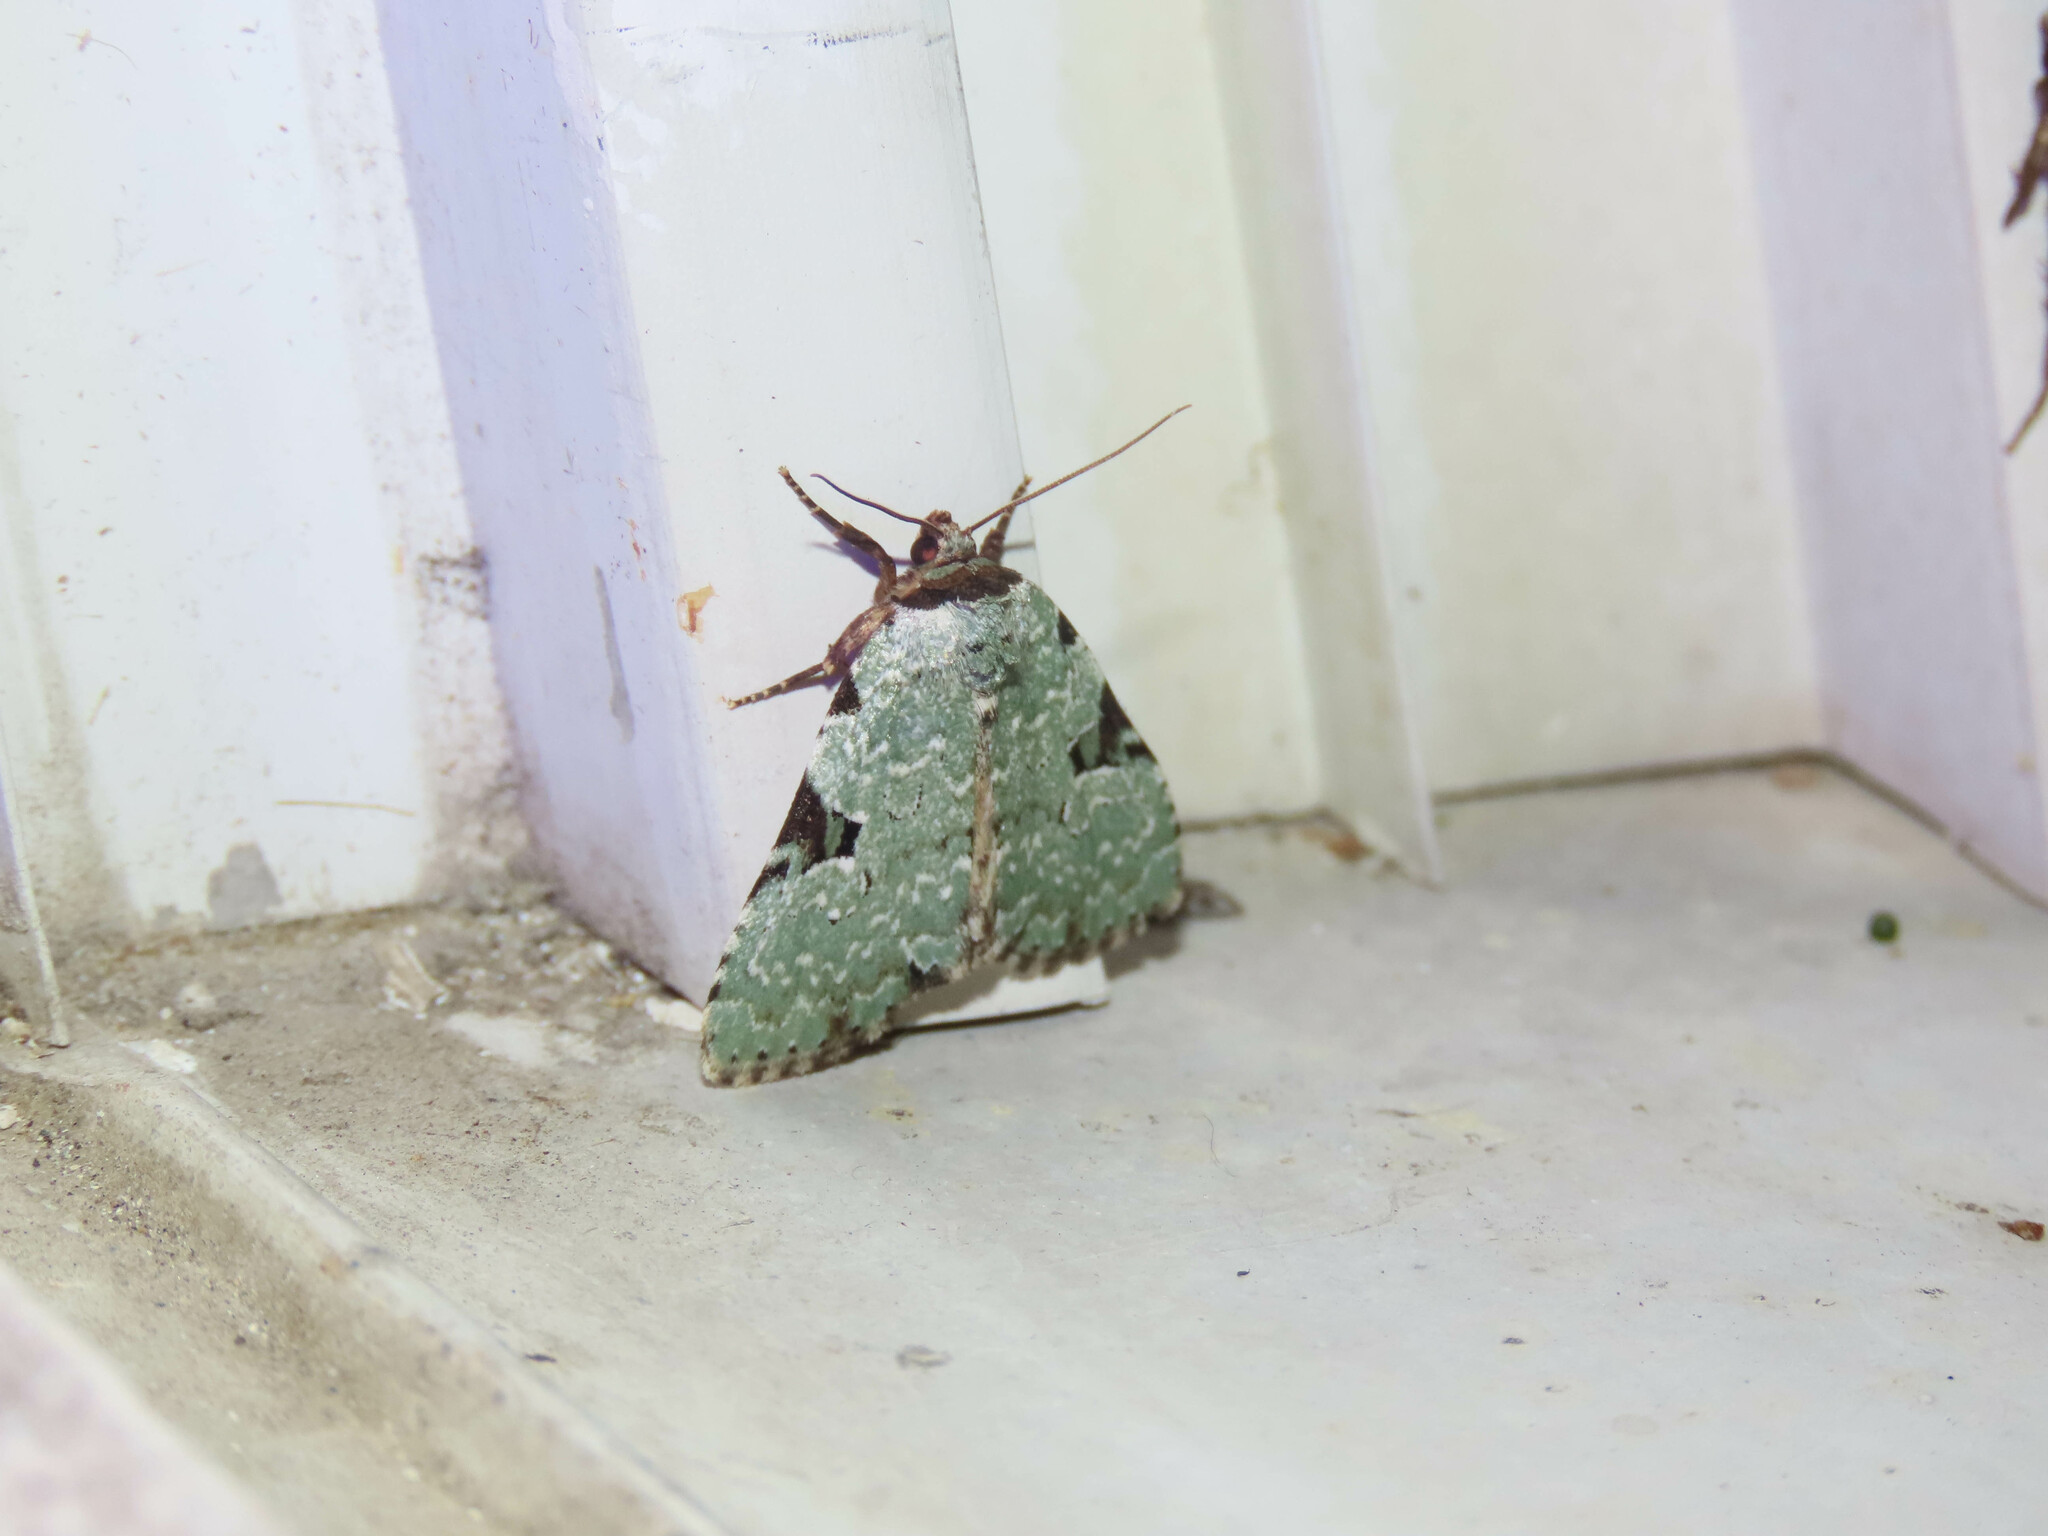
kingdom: Animalia
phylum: Arthropoda
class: Insecta
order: Lepidoptera
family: Noctuidae
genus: Leuconycta
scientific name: Leuconycta diphteroides
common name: Green leuconycta moth
